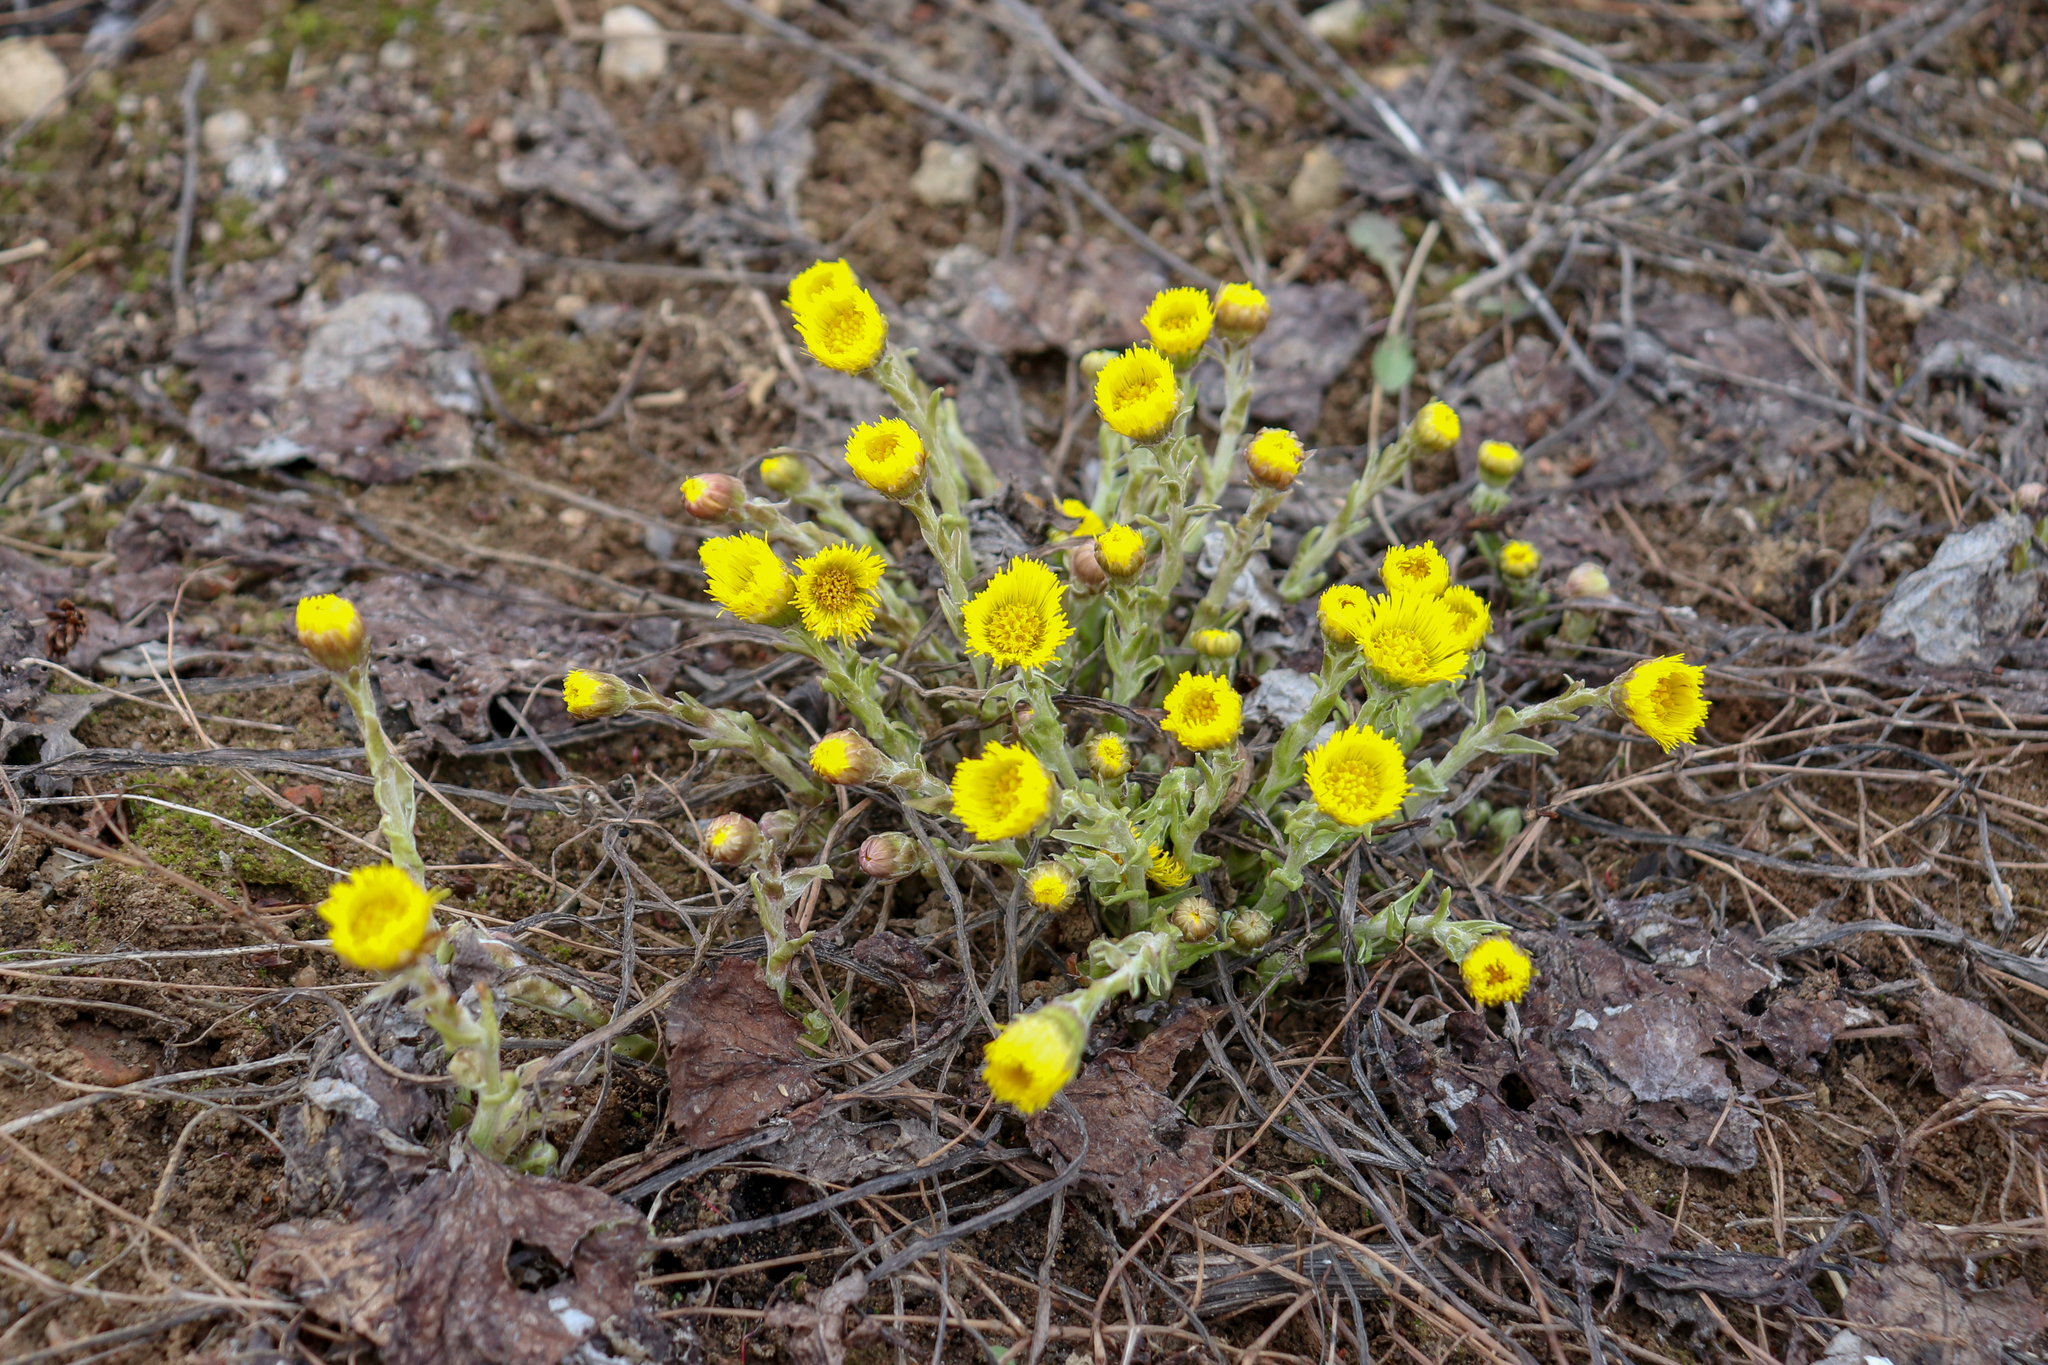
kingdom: Plantae
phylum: Tracheophyta
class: Magnoliopsida
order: Asterales
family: Asteraceae
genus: Tussilago
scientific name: Tussilago farfara
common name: Coltsfoot
